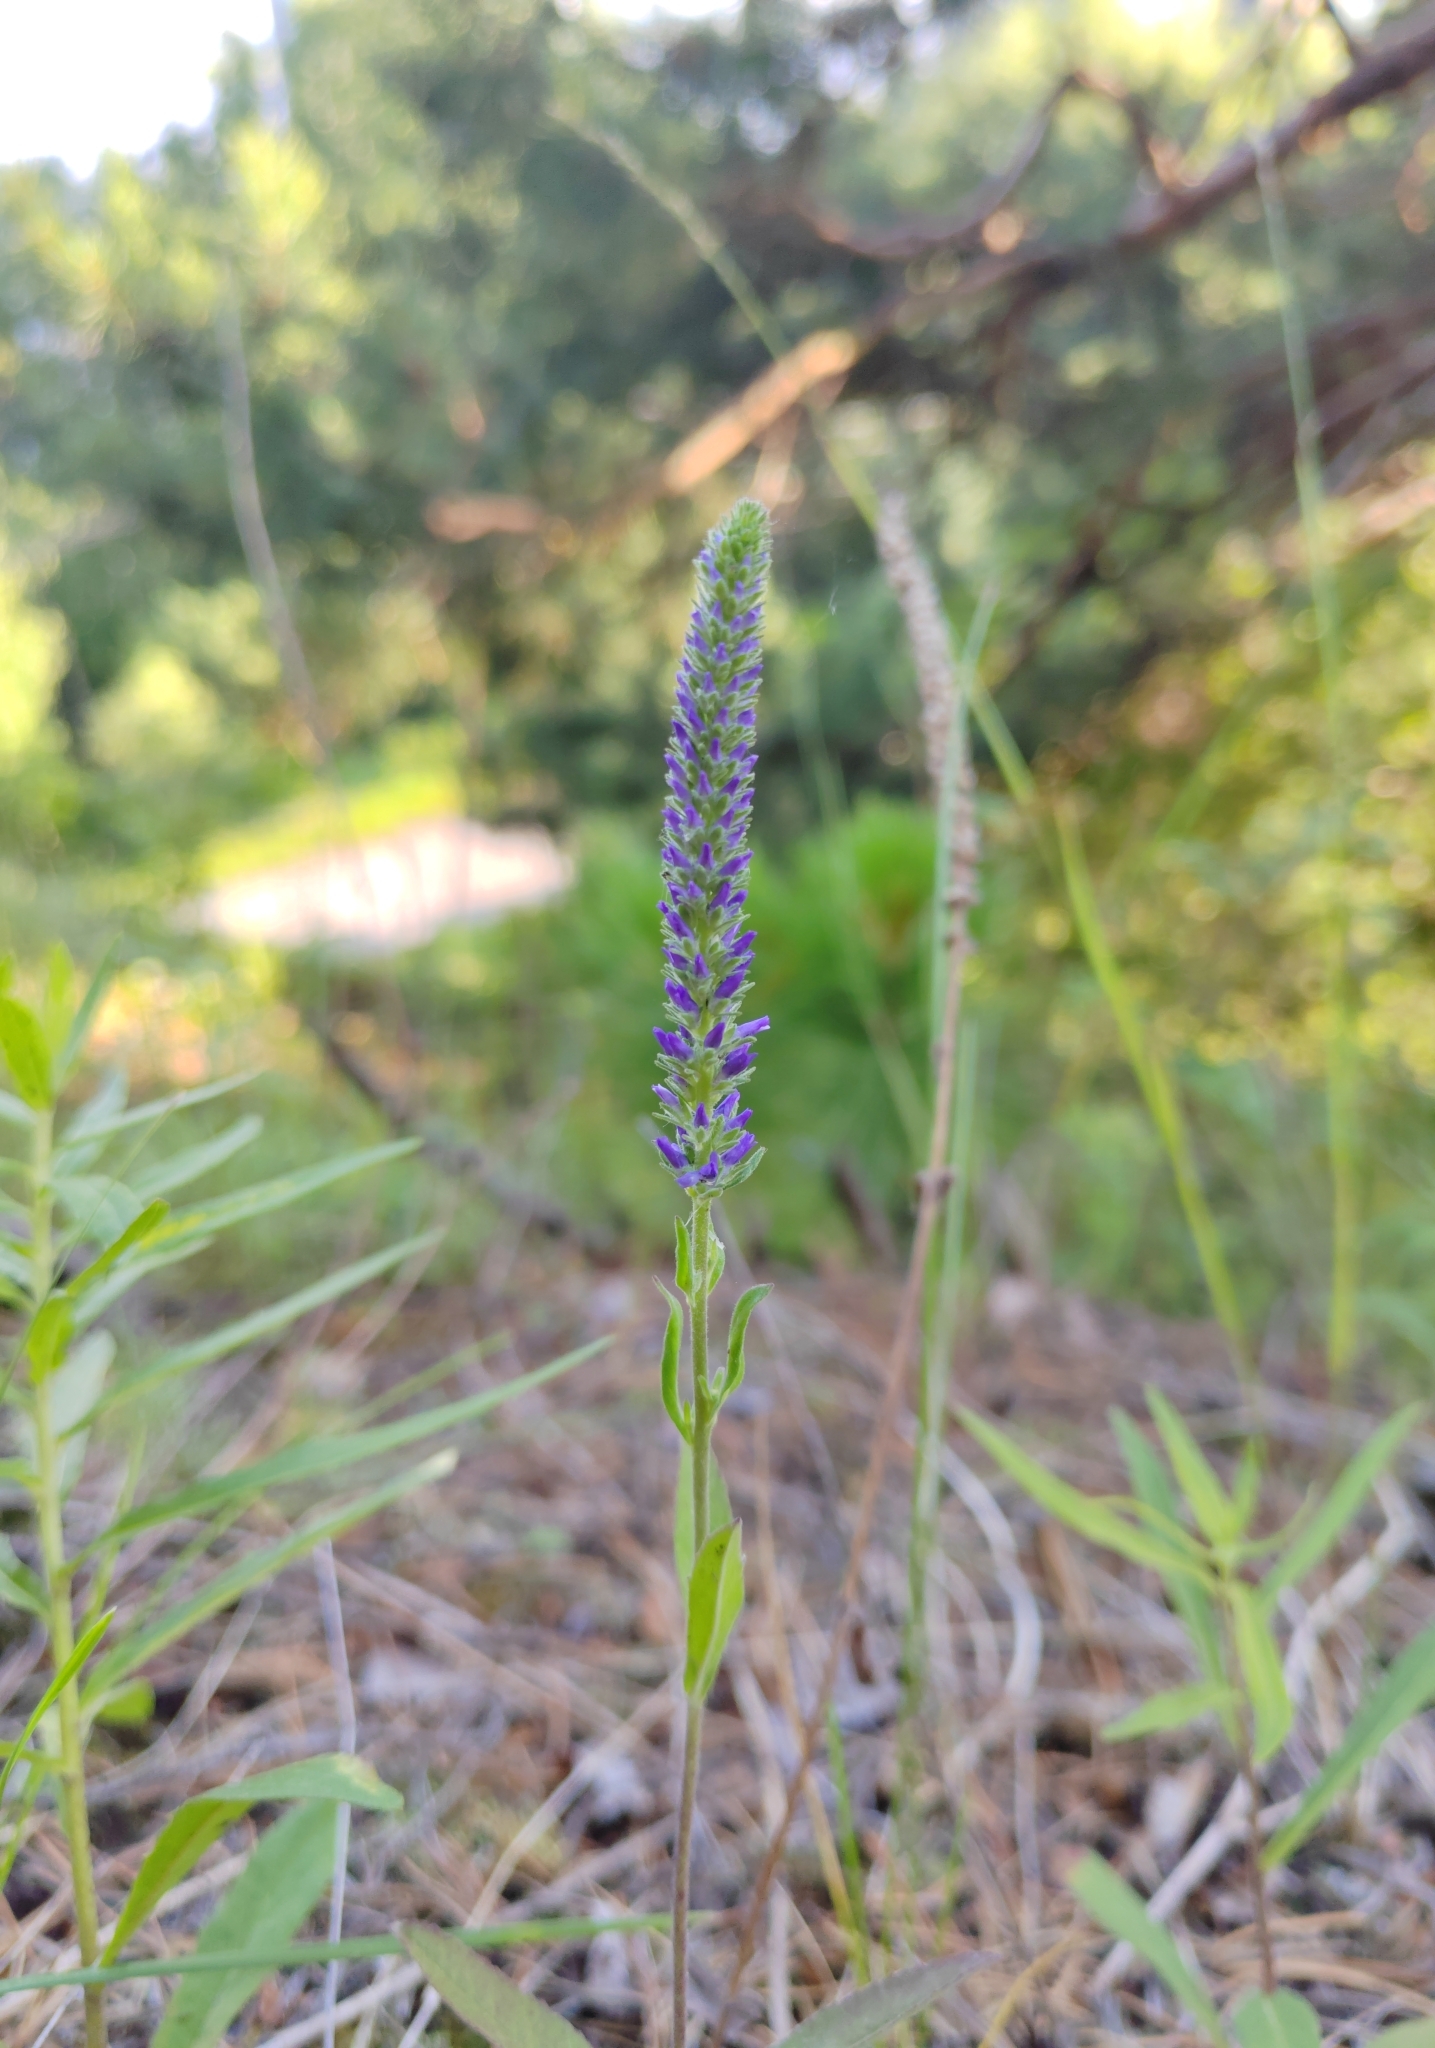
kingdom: Plantae
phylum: Tracheophyta
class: Magnoliopsida
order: Lamiales
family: Plantaginaceae
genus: Veronica
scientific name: Veronica spicata
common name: Spiked speedwell
